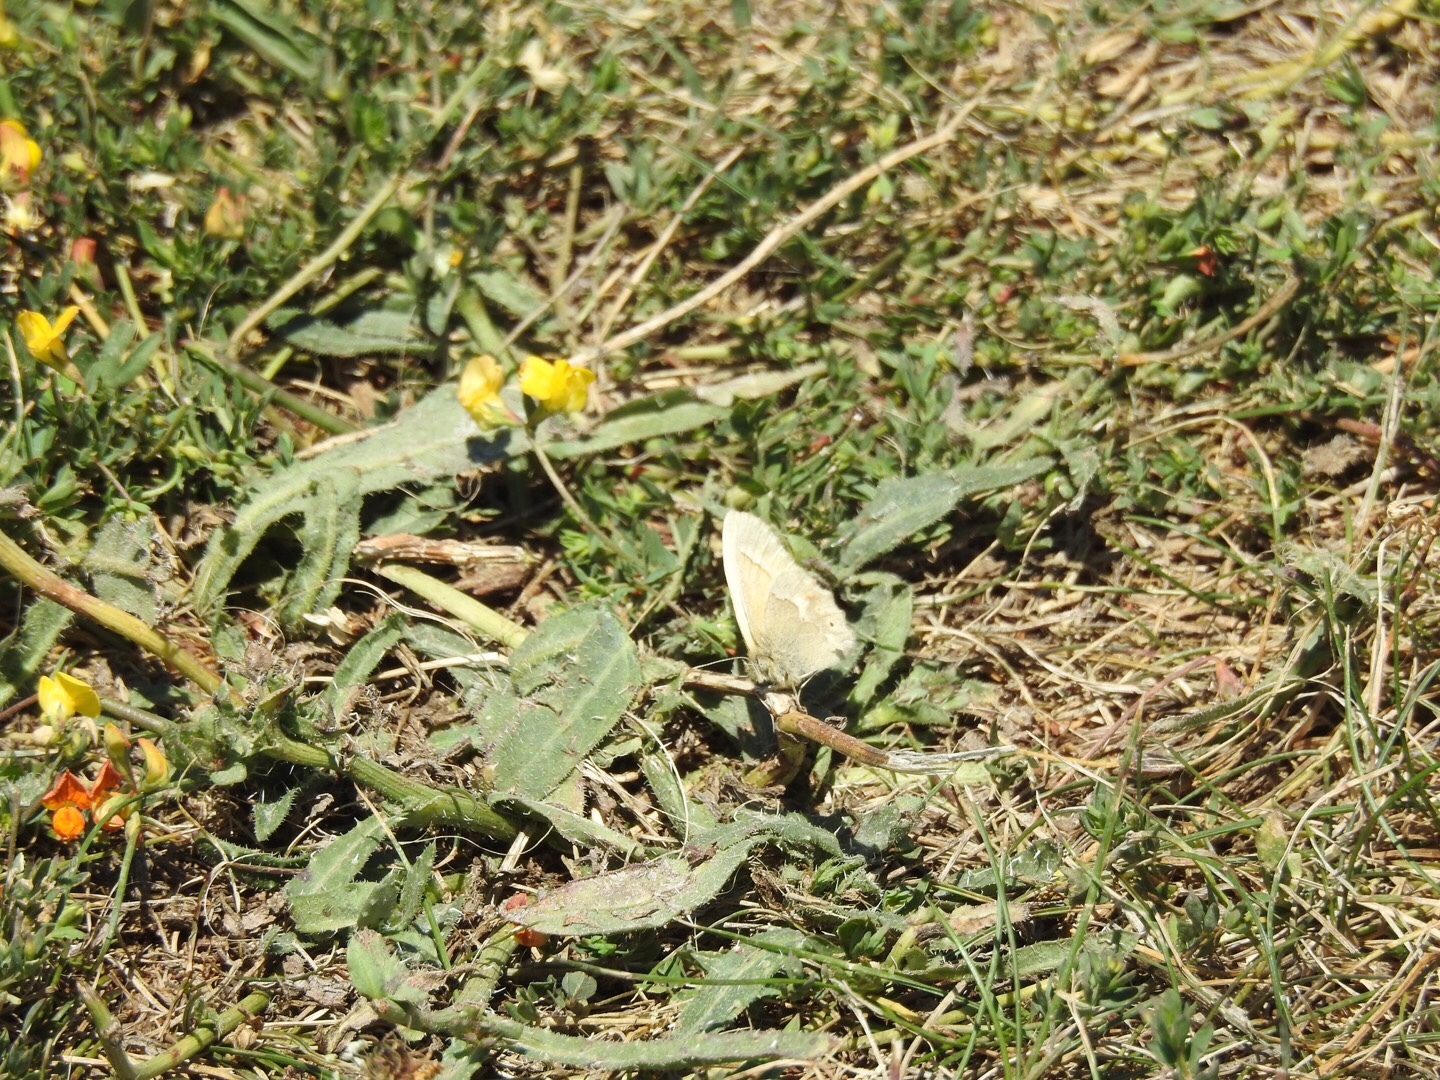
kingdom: Animalia
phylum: Arthropoda
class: Insecta
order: Lepidoptera
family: Nymphalidae
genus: Coenonympha
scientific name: Coenonympha california
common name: Common ringlet
